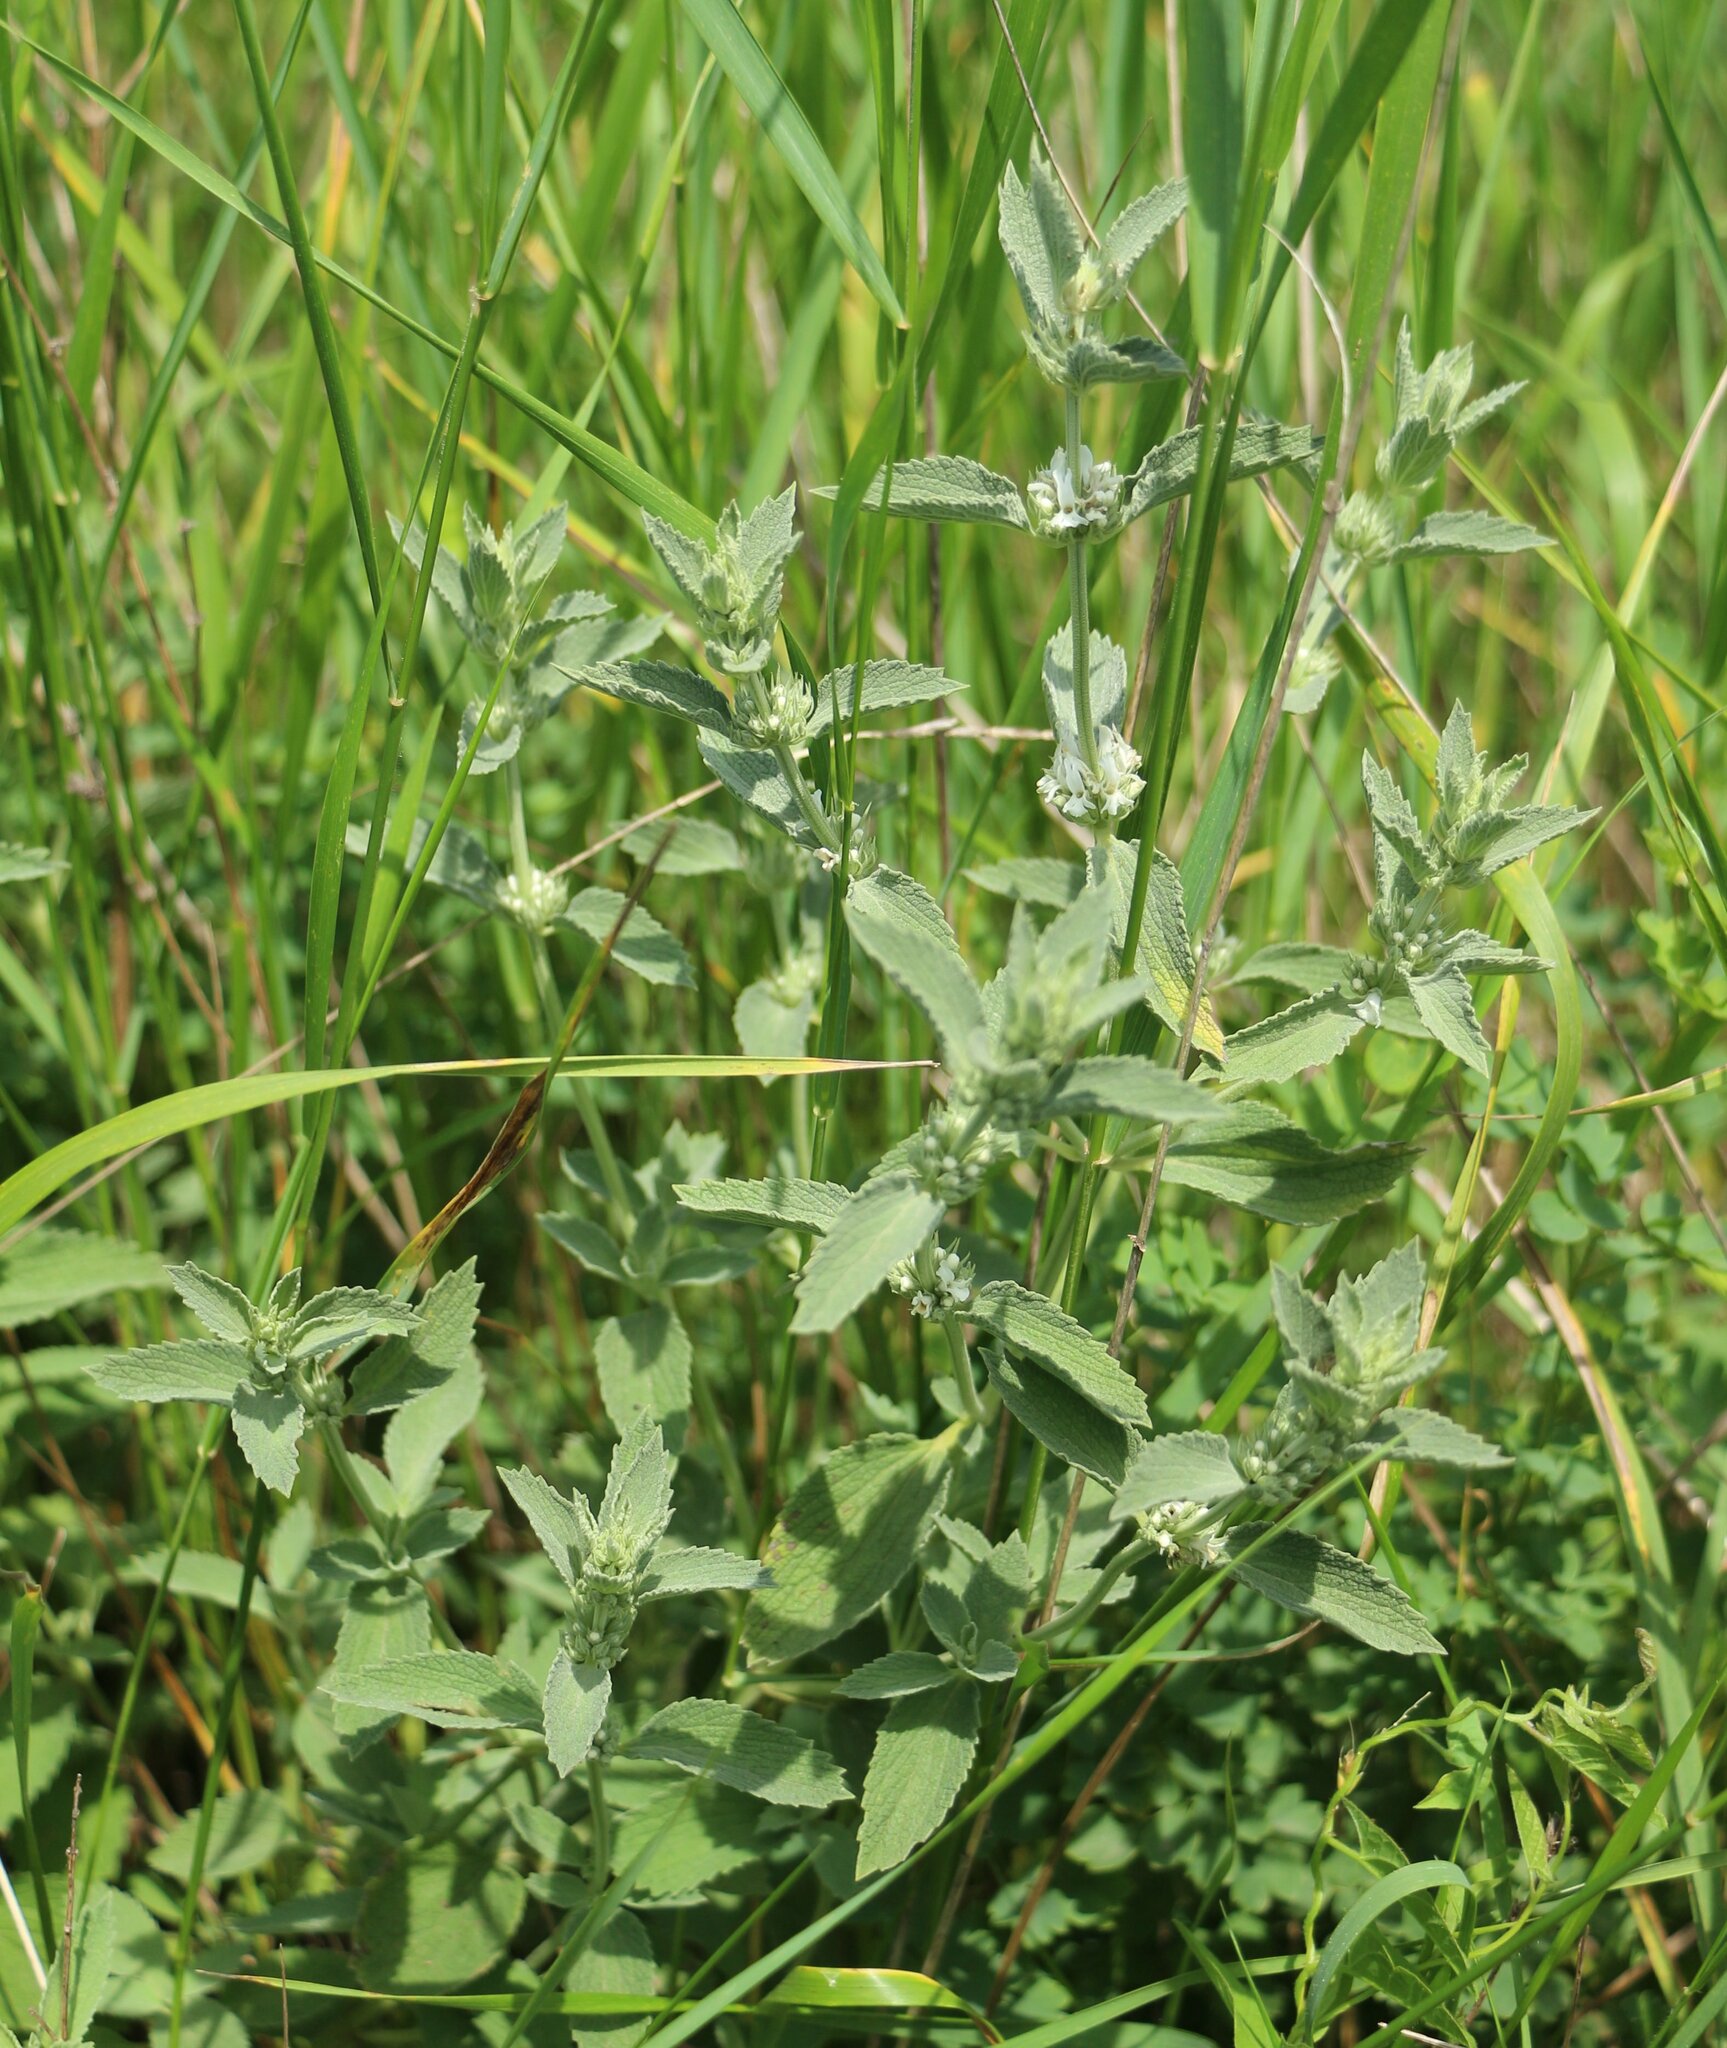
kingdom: Plantae
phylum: Tracheophyta
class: Magnoliopsida
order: Lamiales
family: Lamiaceae
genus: Marrubium
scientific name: Marrubium peregrinum
